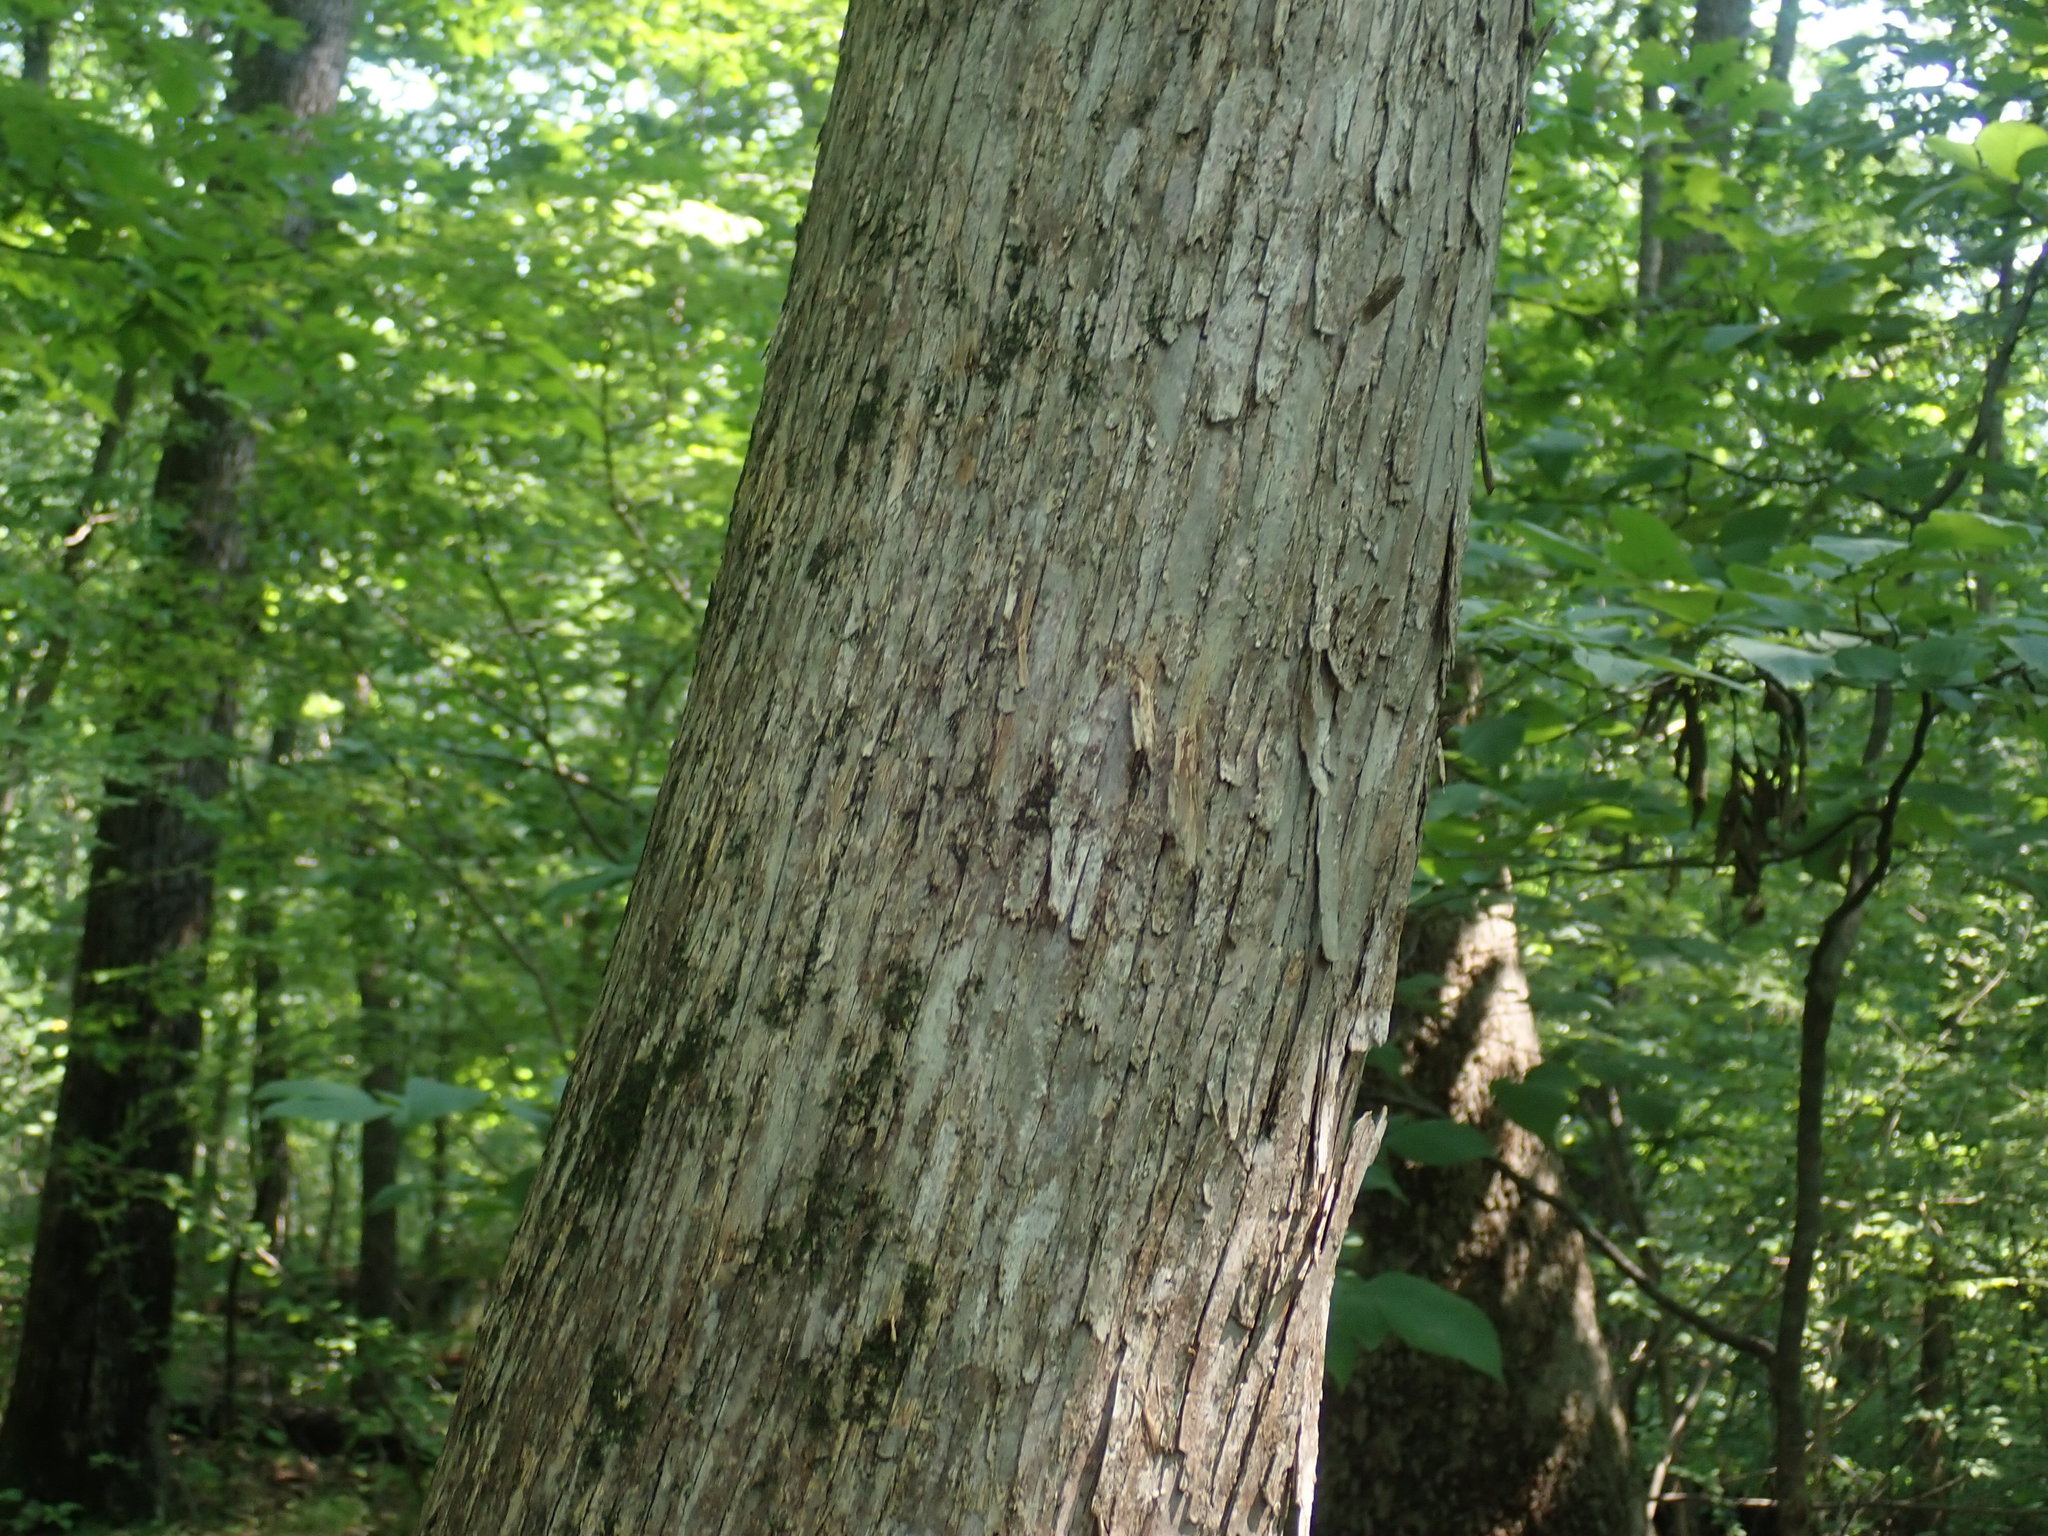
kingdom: Plantae
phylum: Tracheophyta
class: Magnoliopsida
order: Fagales
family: Betulaceae
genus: Ostrya
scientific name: Ostrya virginiana
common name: Ironwood
